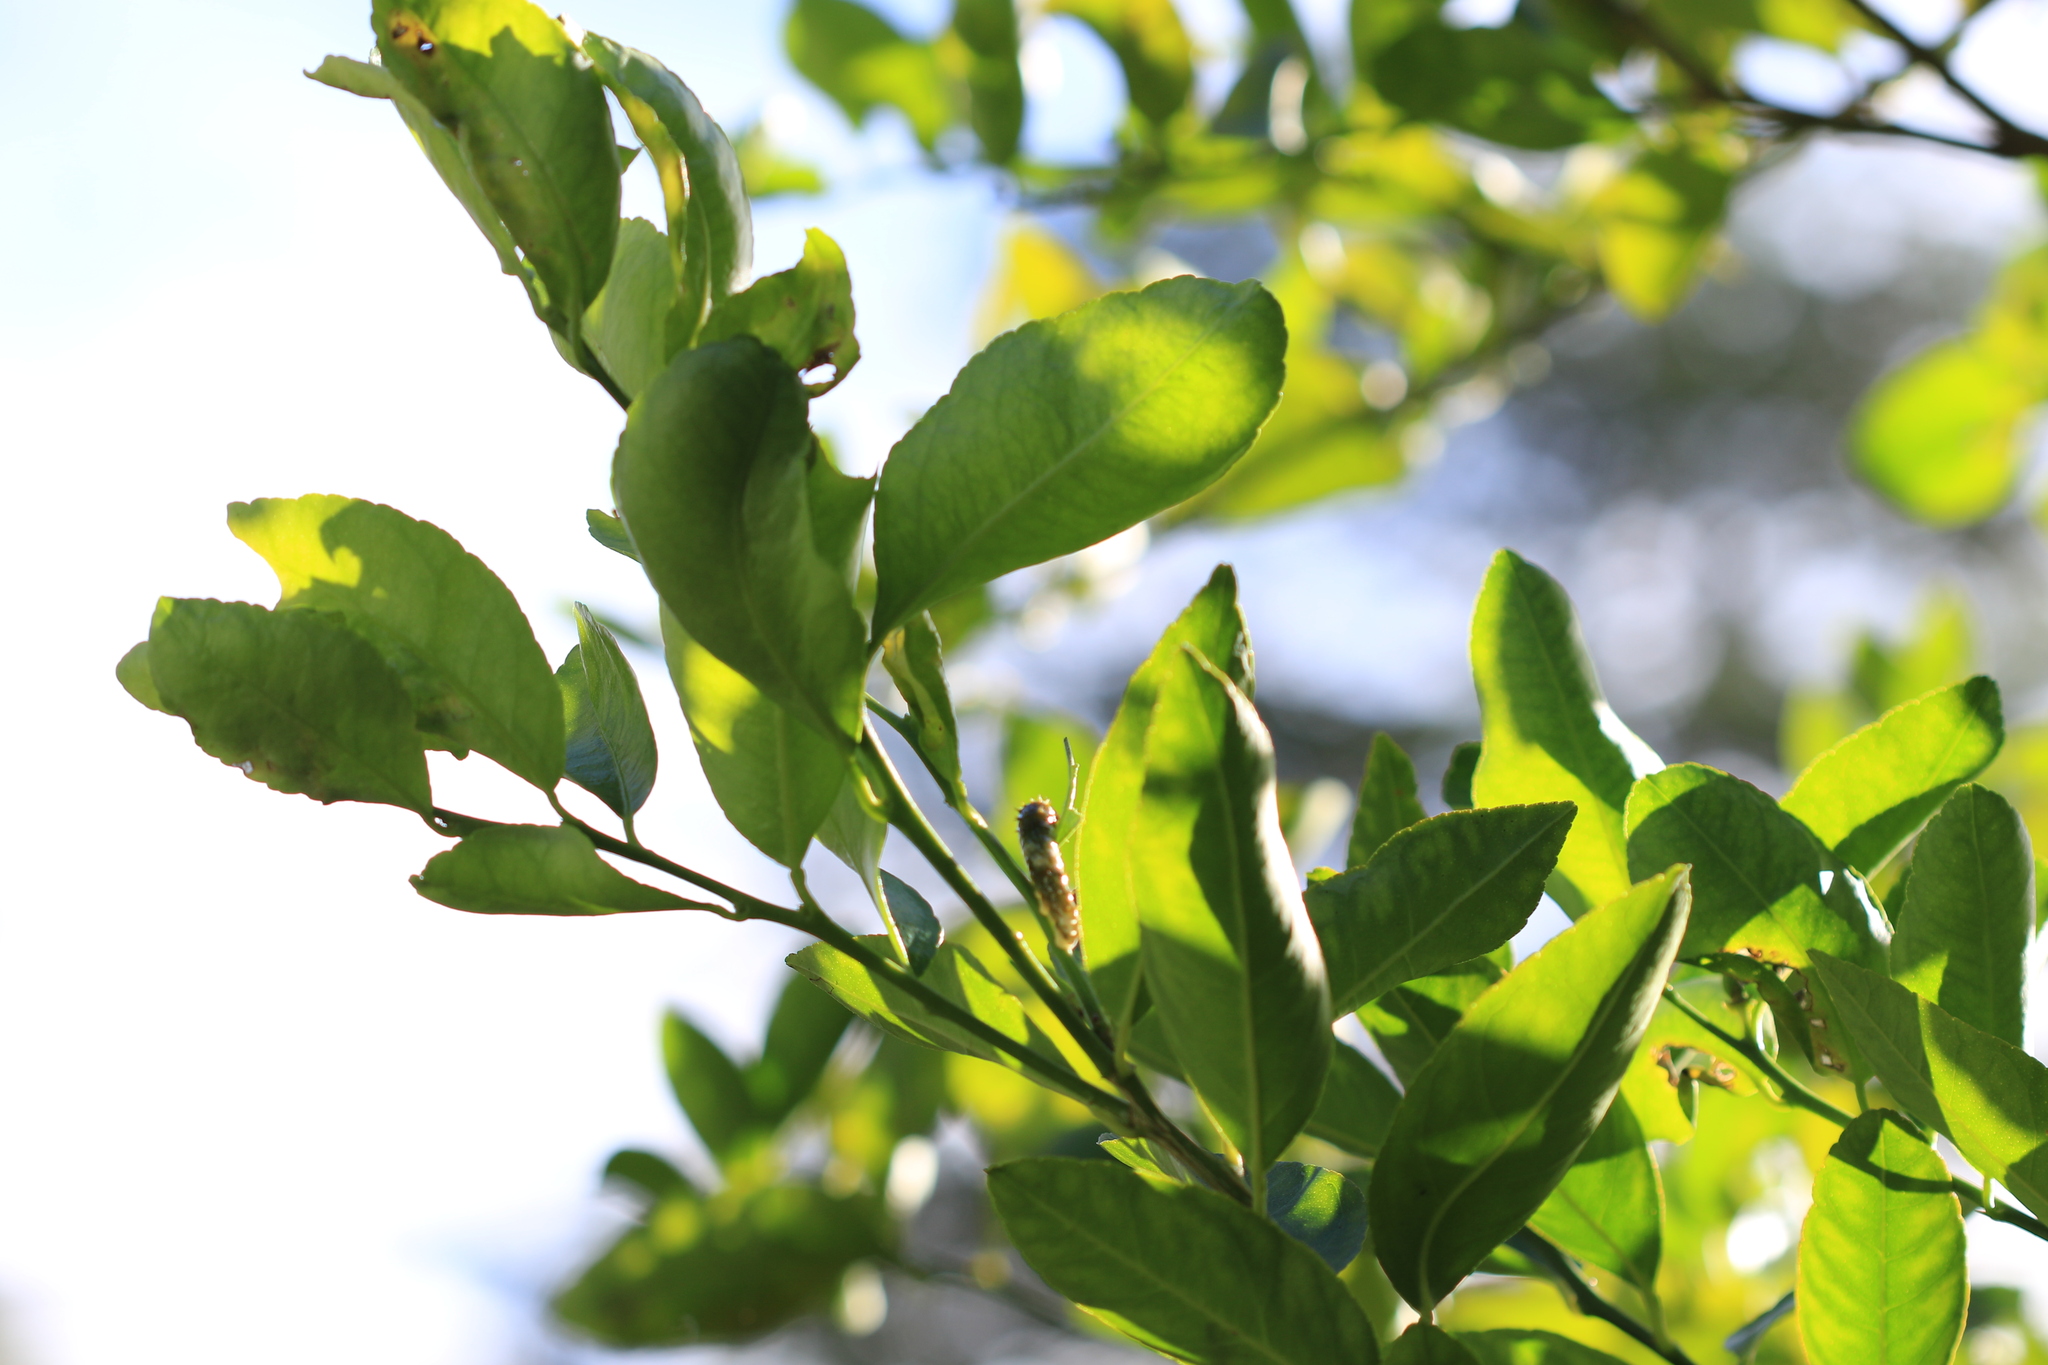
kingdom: Animalia
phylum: Arthropoda
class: Insecta
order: Lepidoptera
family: Papilionidae
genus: Papilio
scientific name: Papilio aegeus
